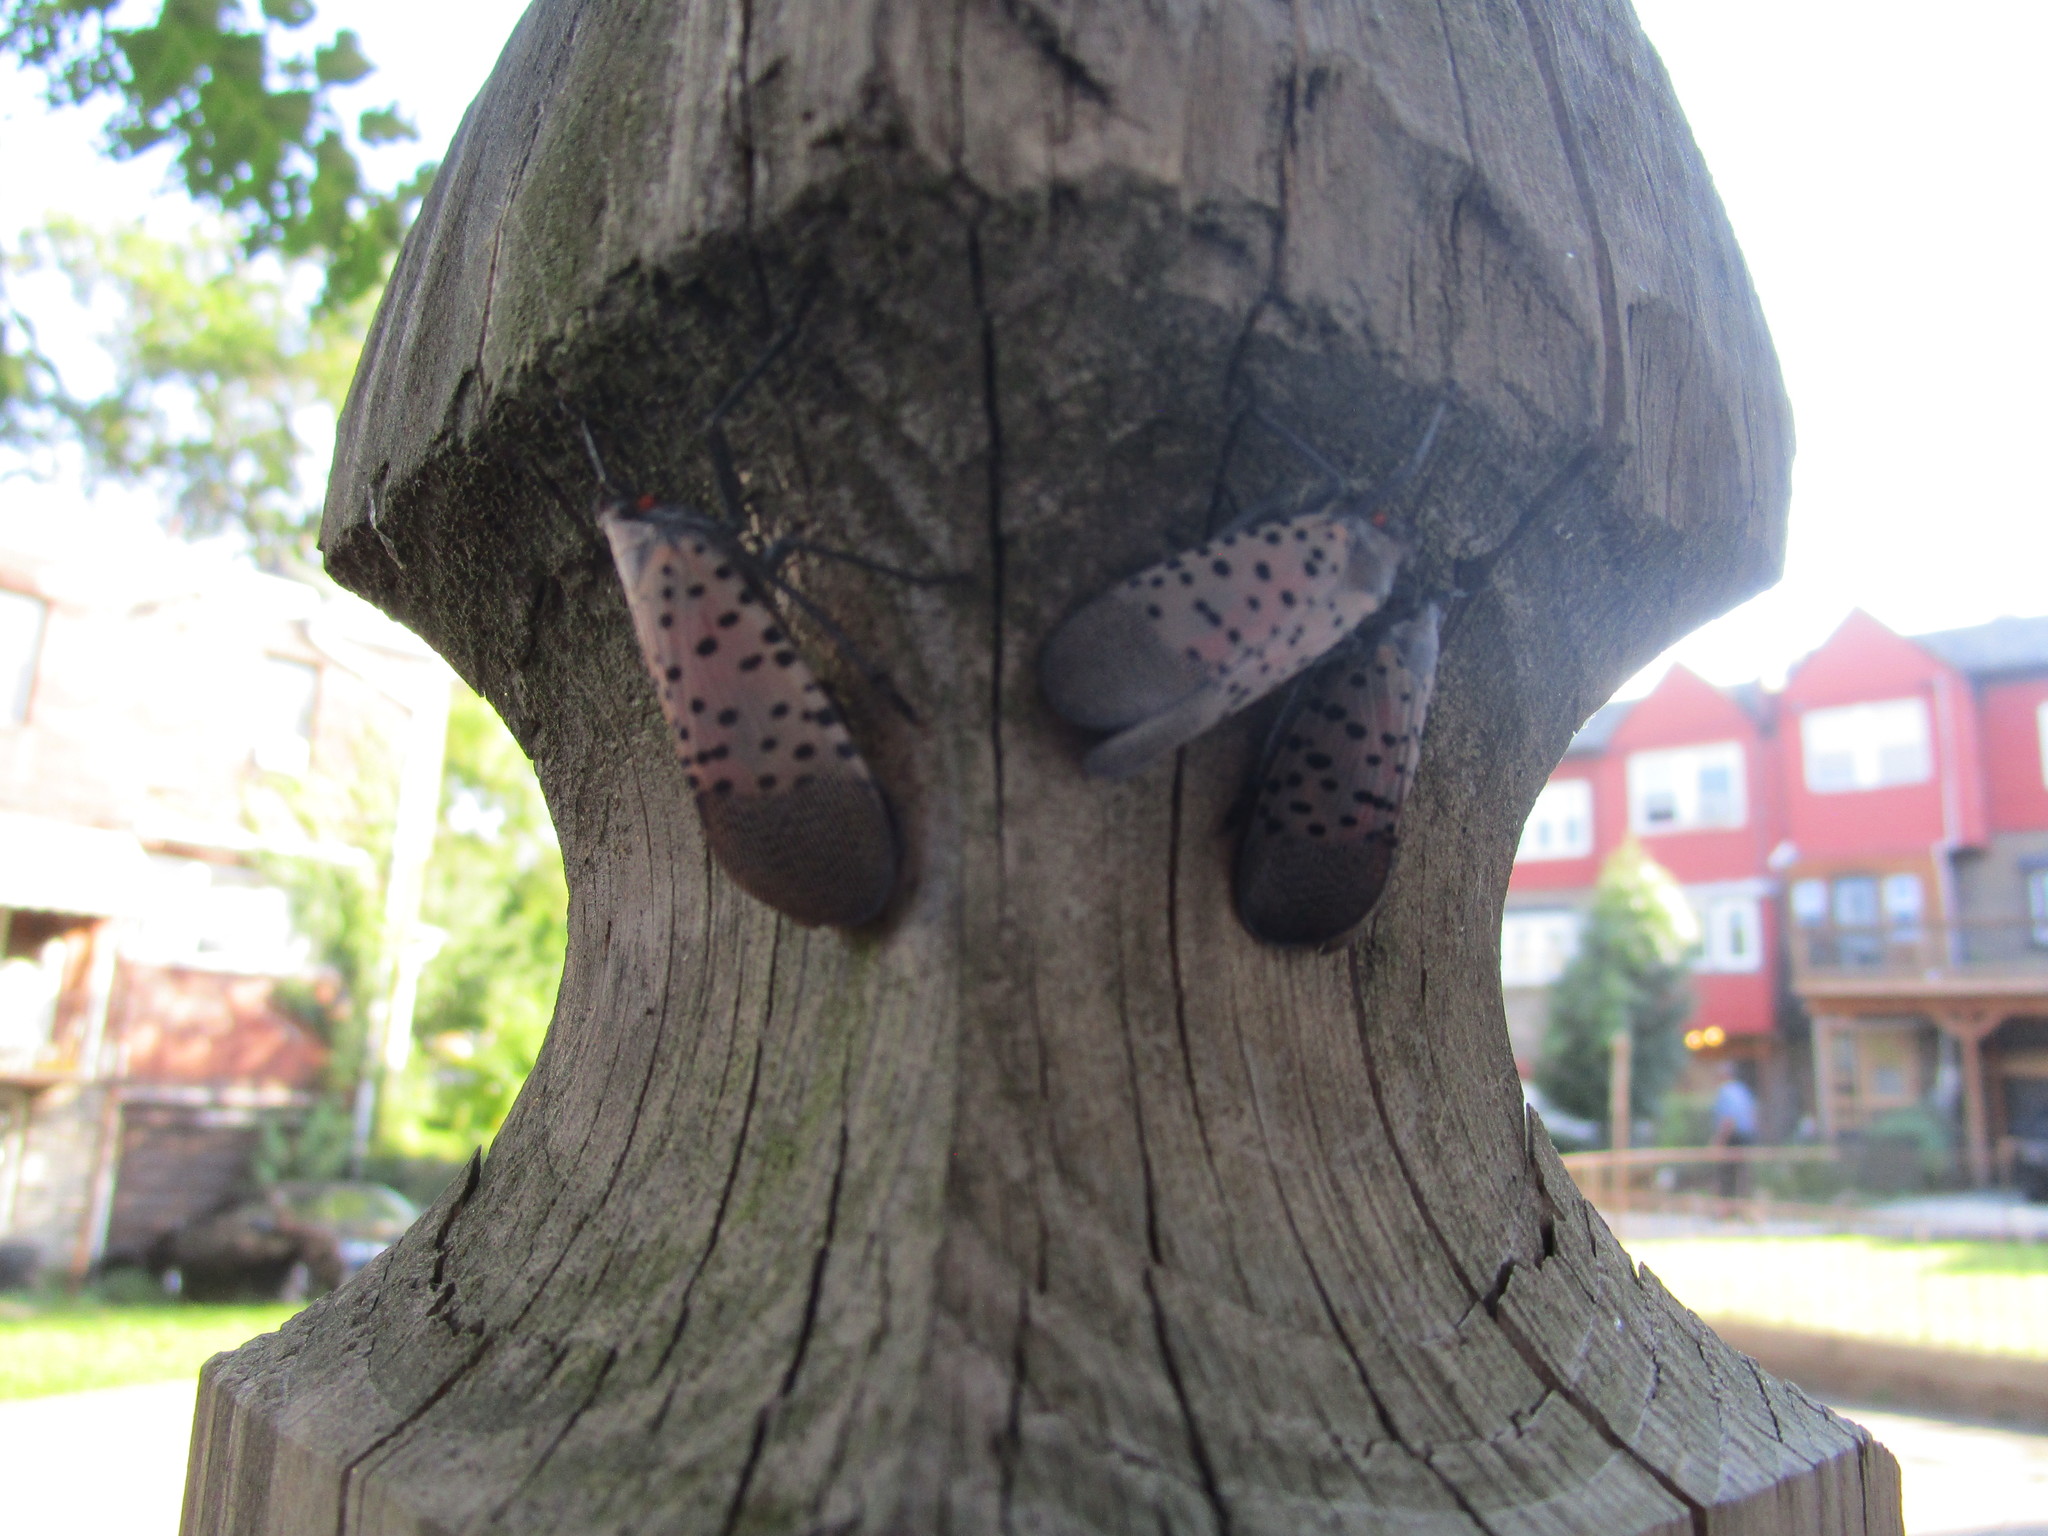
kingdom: Animalia
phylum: Arthropoda
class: Insecta
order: Hemiptera
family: Fulgoridae
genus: Lycorma
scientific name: Lycorma delicatula
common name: Spotted lanternfly
